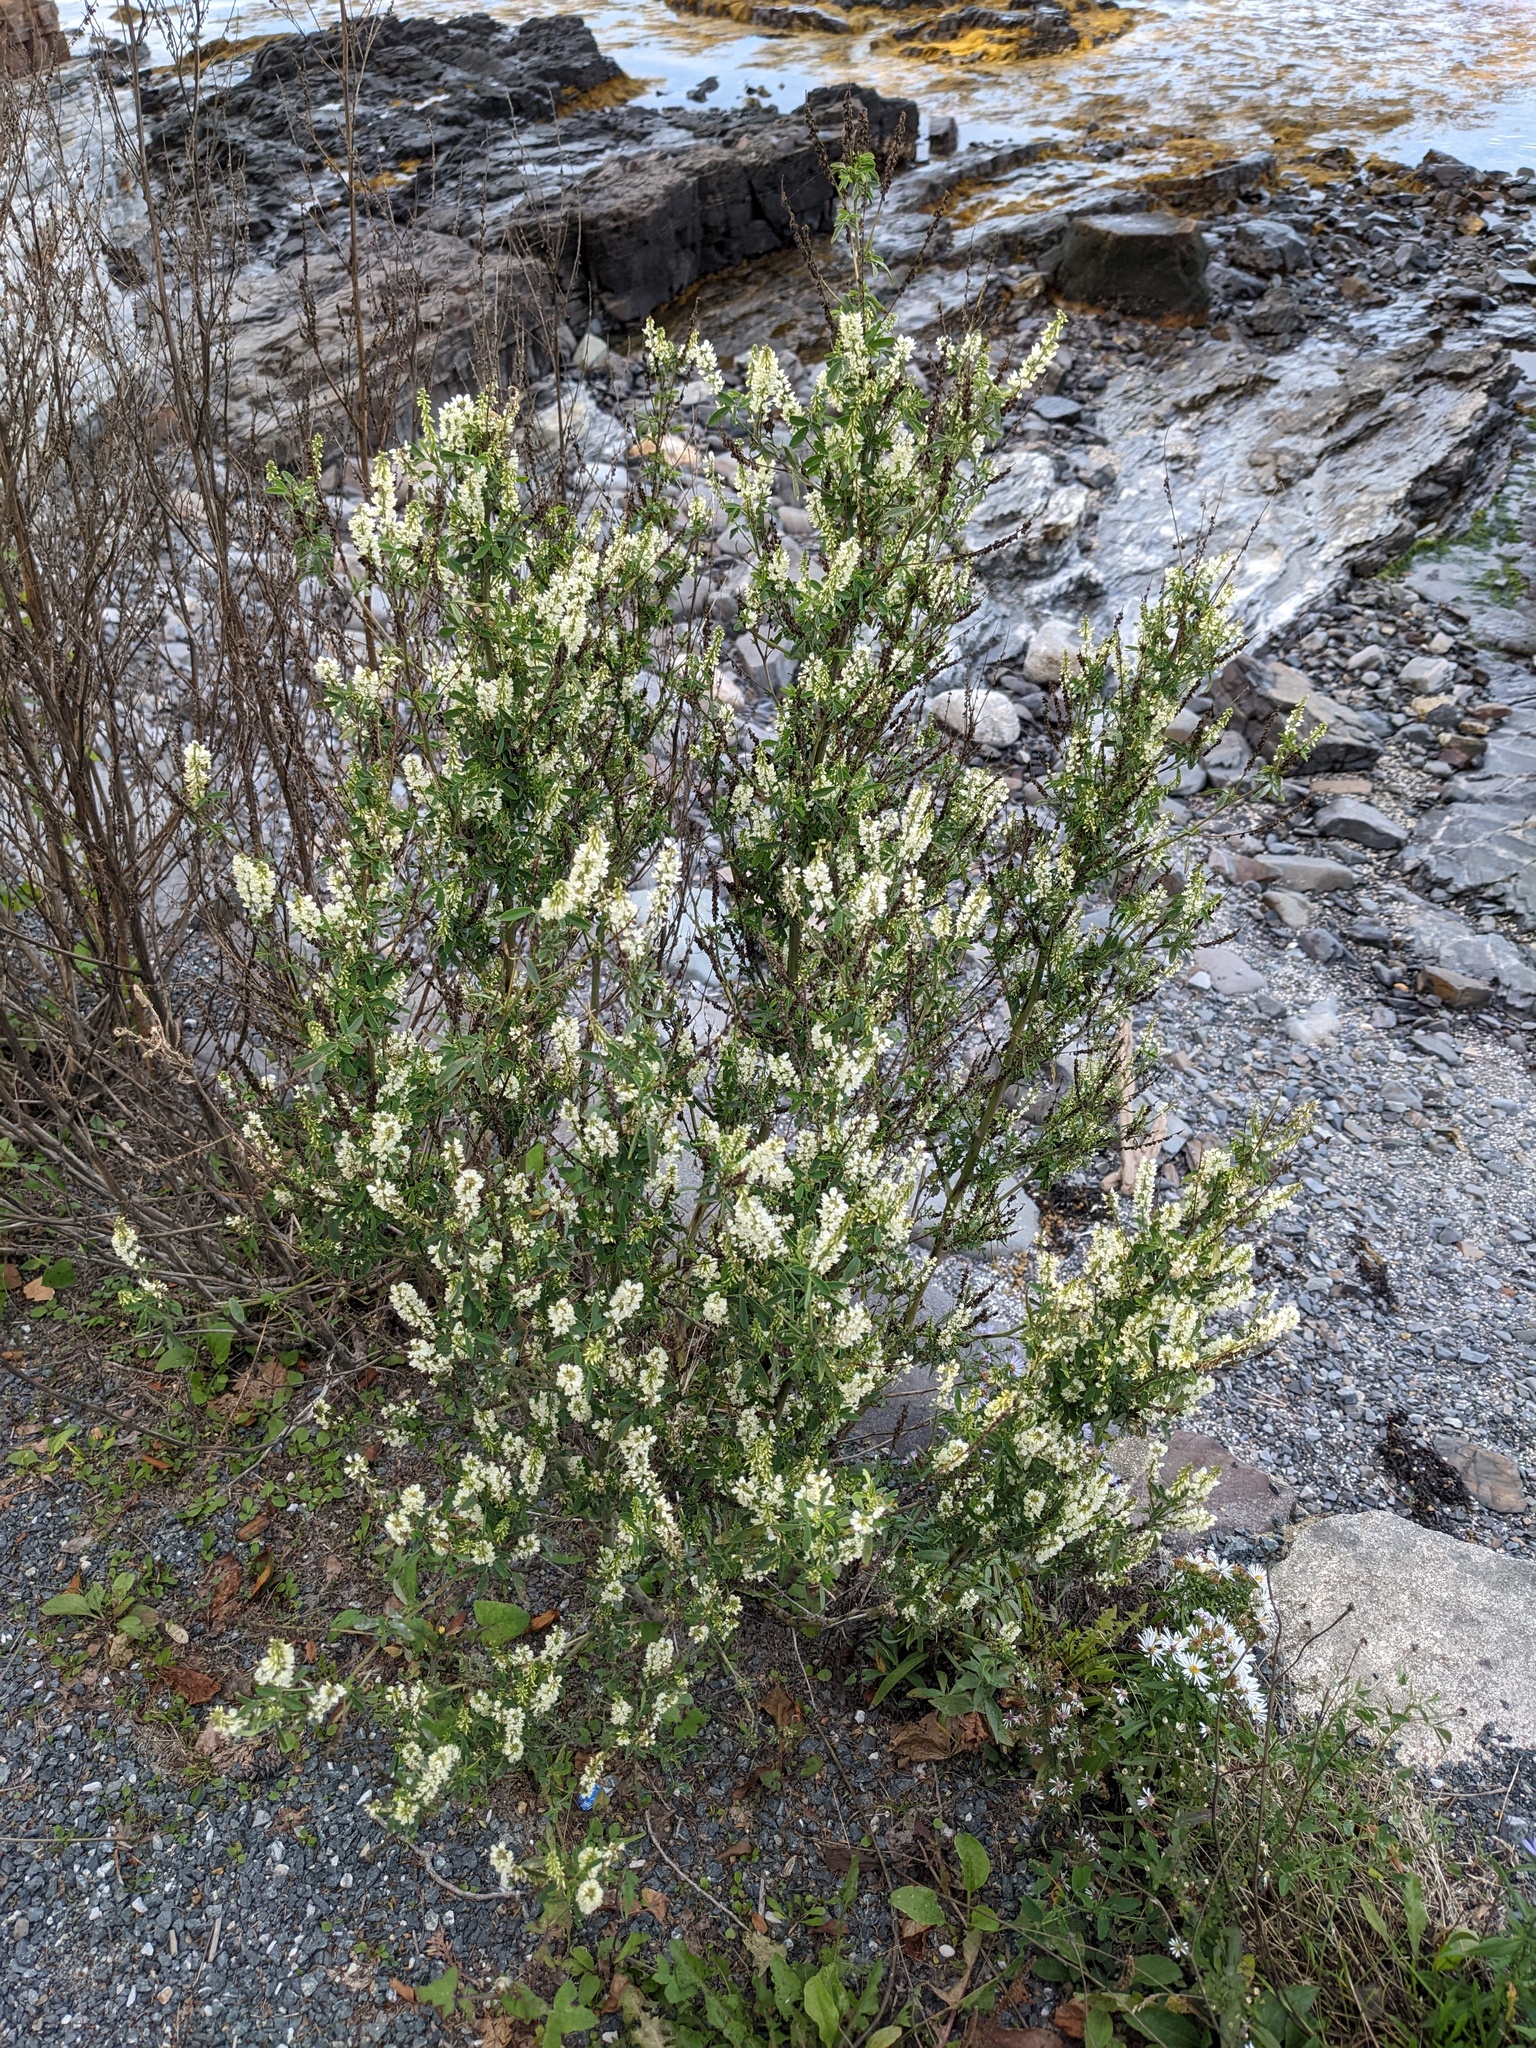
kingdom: Plantae
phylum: Tracheophyta
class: Magnoliopsida
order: Fabales
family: Fabaceae
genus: Melilotus
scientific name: Melilotus albus
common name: White melilot
